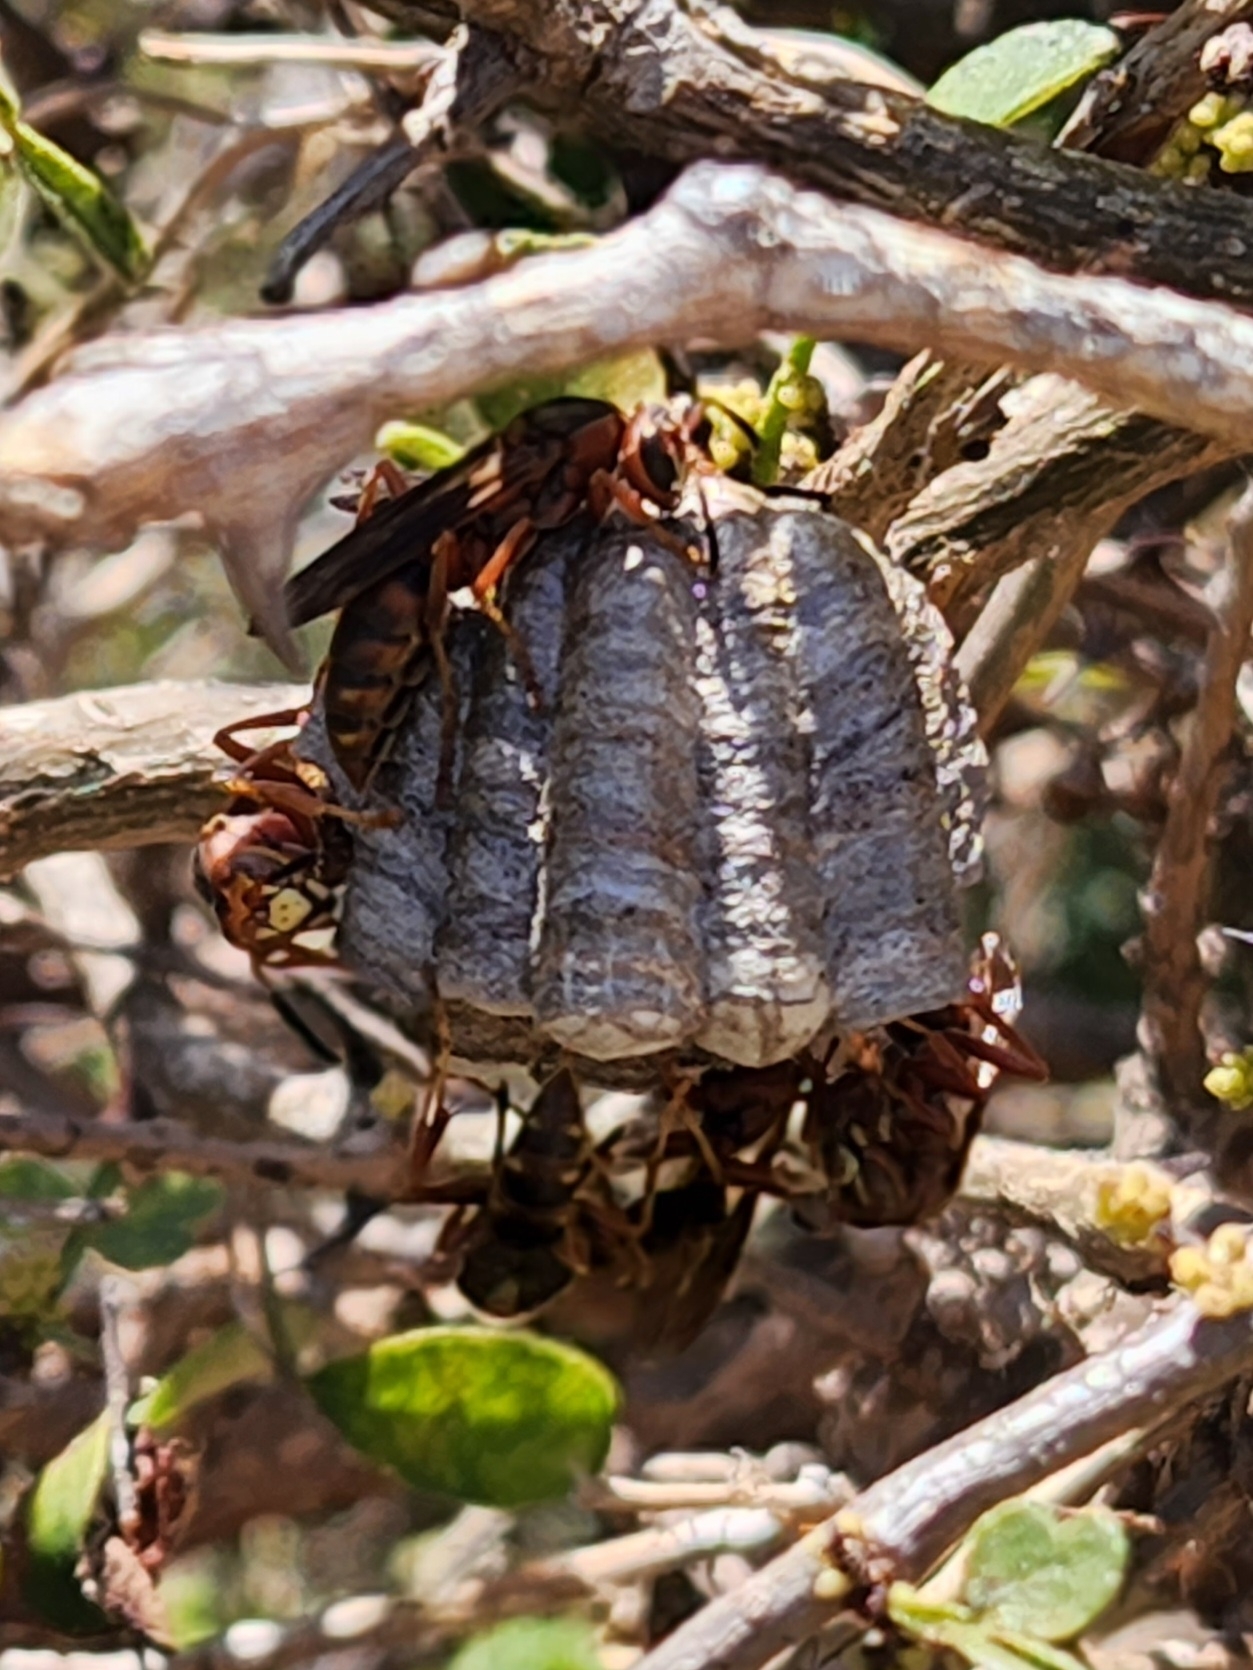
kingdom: Animalia
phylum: Arthropoda
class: Insecta
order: Hymenoptera
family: Eumenidae
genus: Polistes
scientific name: Polistes dorsalis
